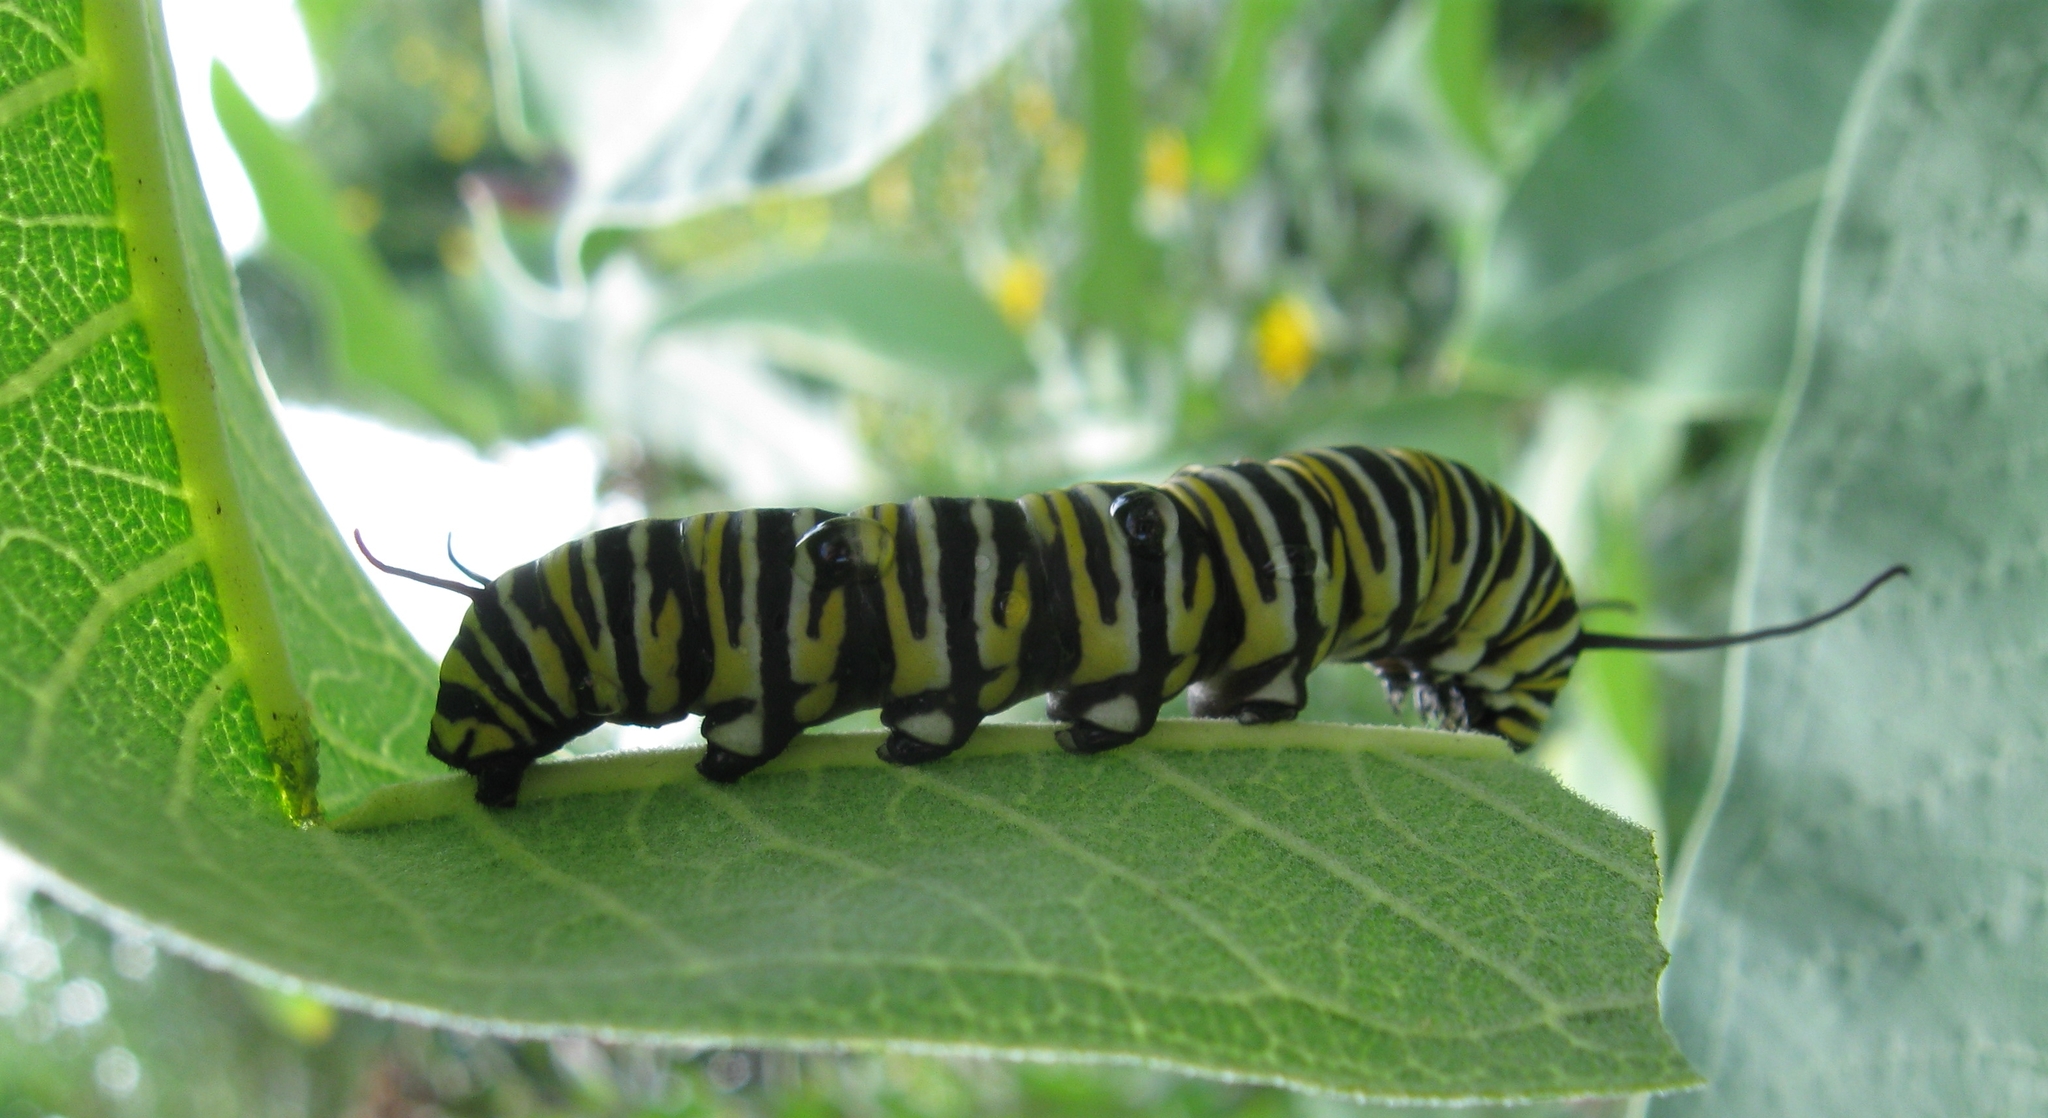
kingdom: Animalia
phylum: Arthropoda
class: Insecta
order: Lepidoptera
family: Nymphalidae
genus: Danaus
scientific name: Danaus plexippus
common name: Monarch
